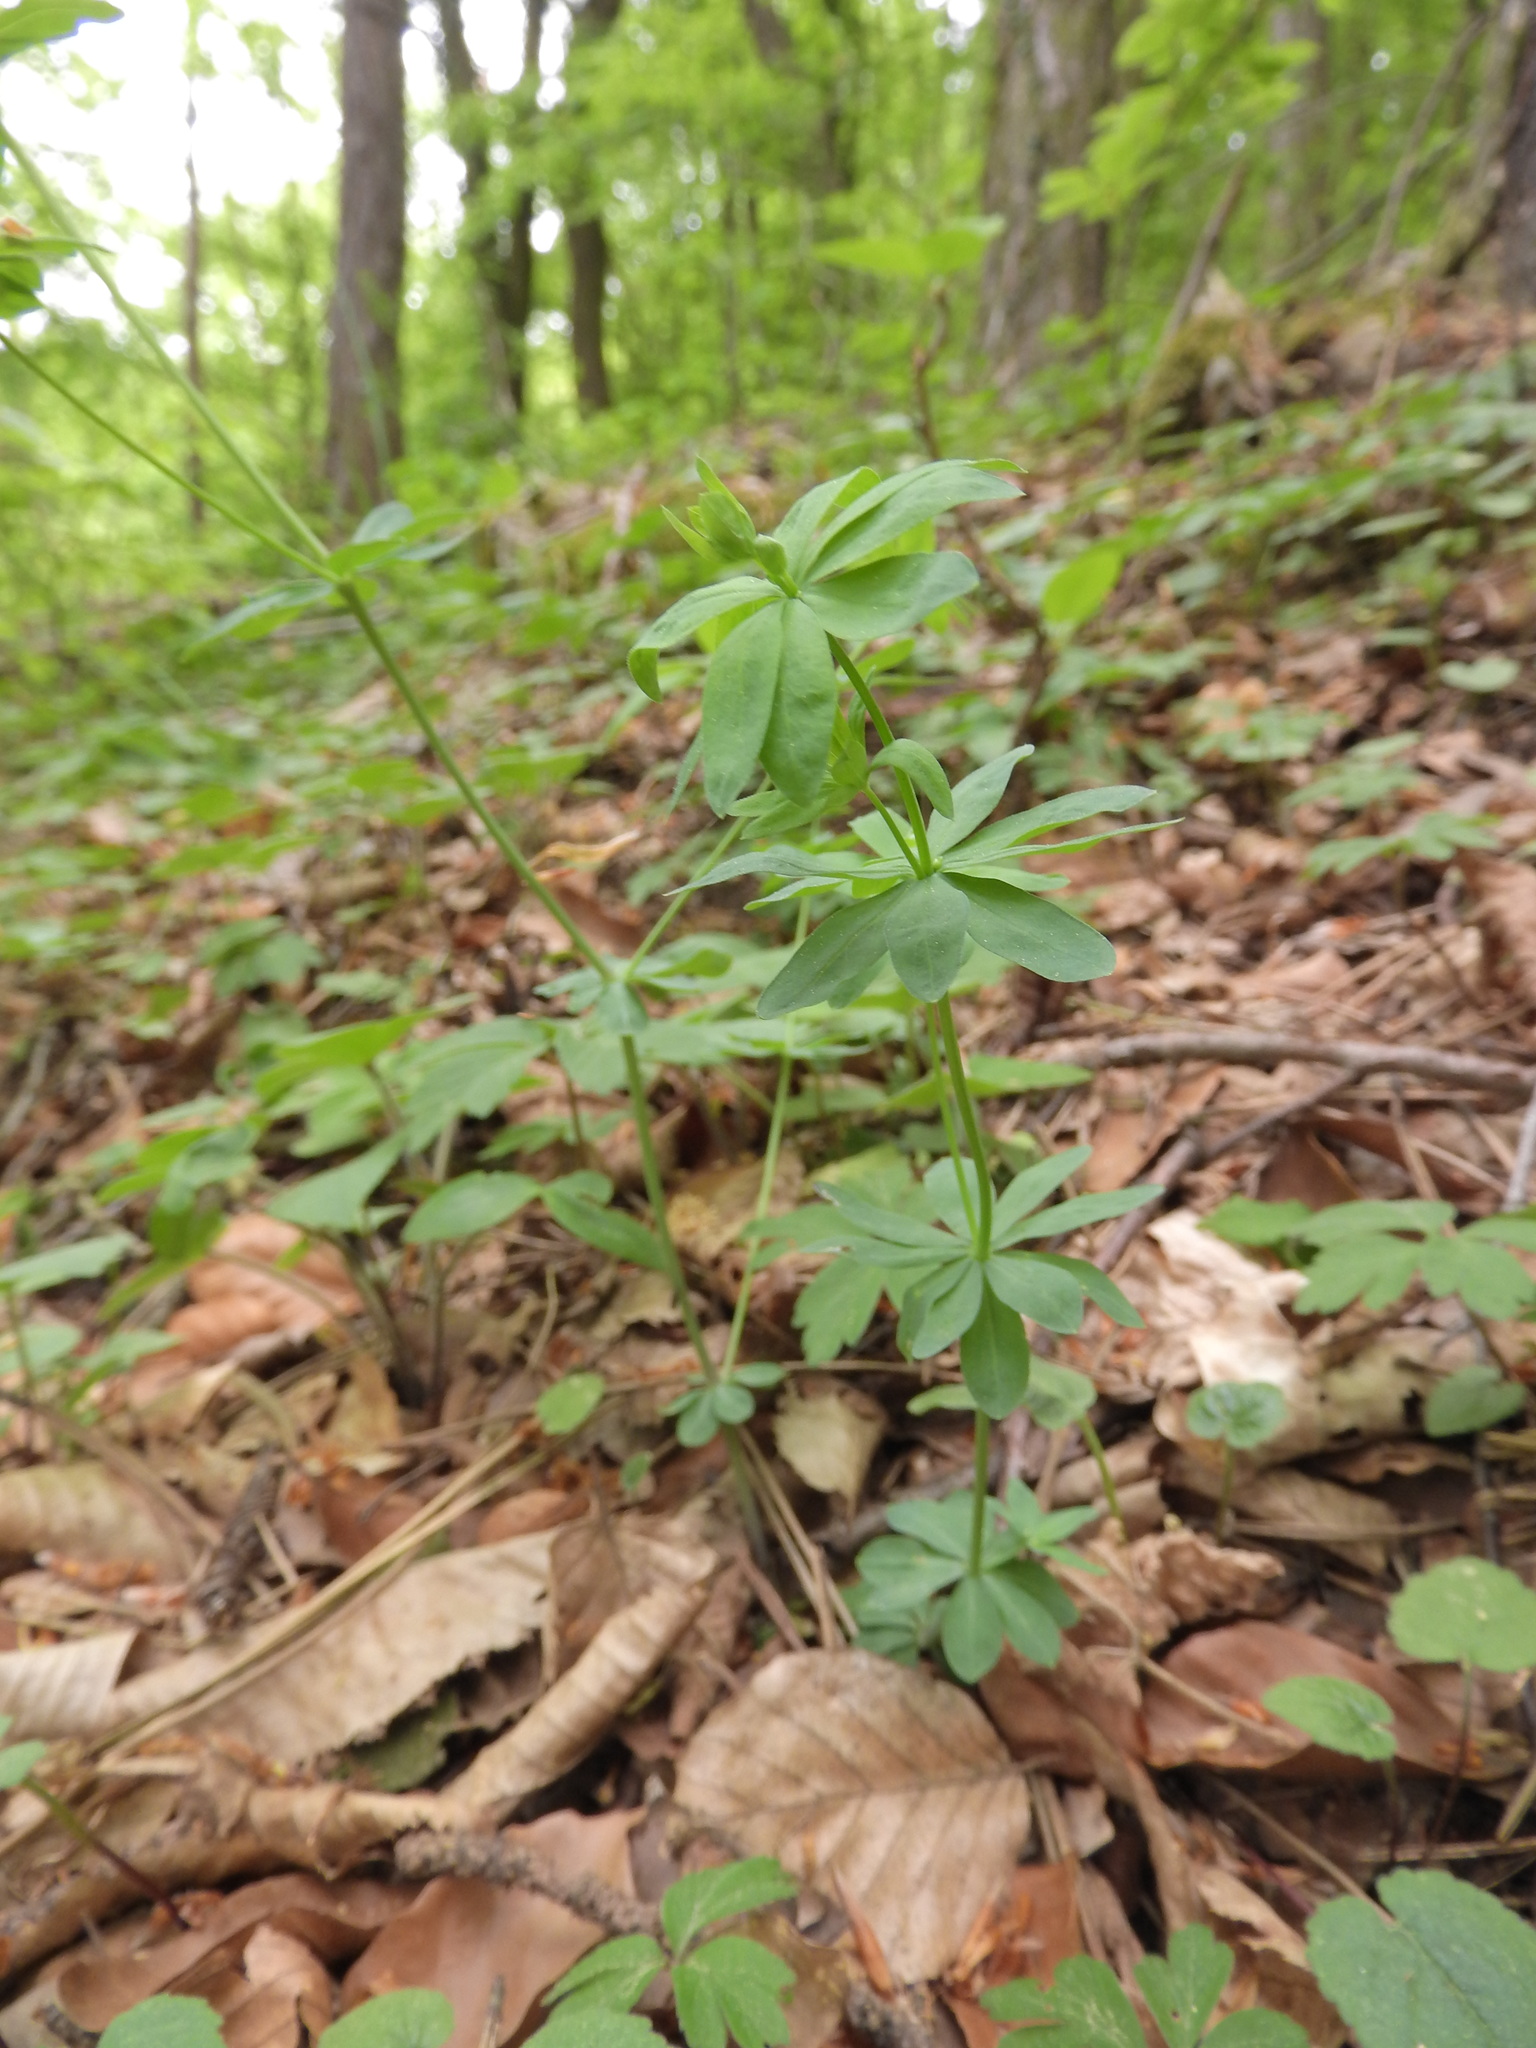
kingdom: Plantae
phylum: Tracheophyta
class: Magnoliopsida
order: Gentianales
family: Rubiaceae
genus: Galium
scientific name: Galium sylvaticum
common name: Wood bedstraw
